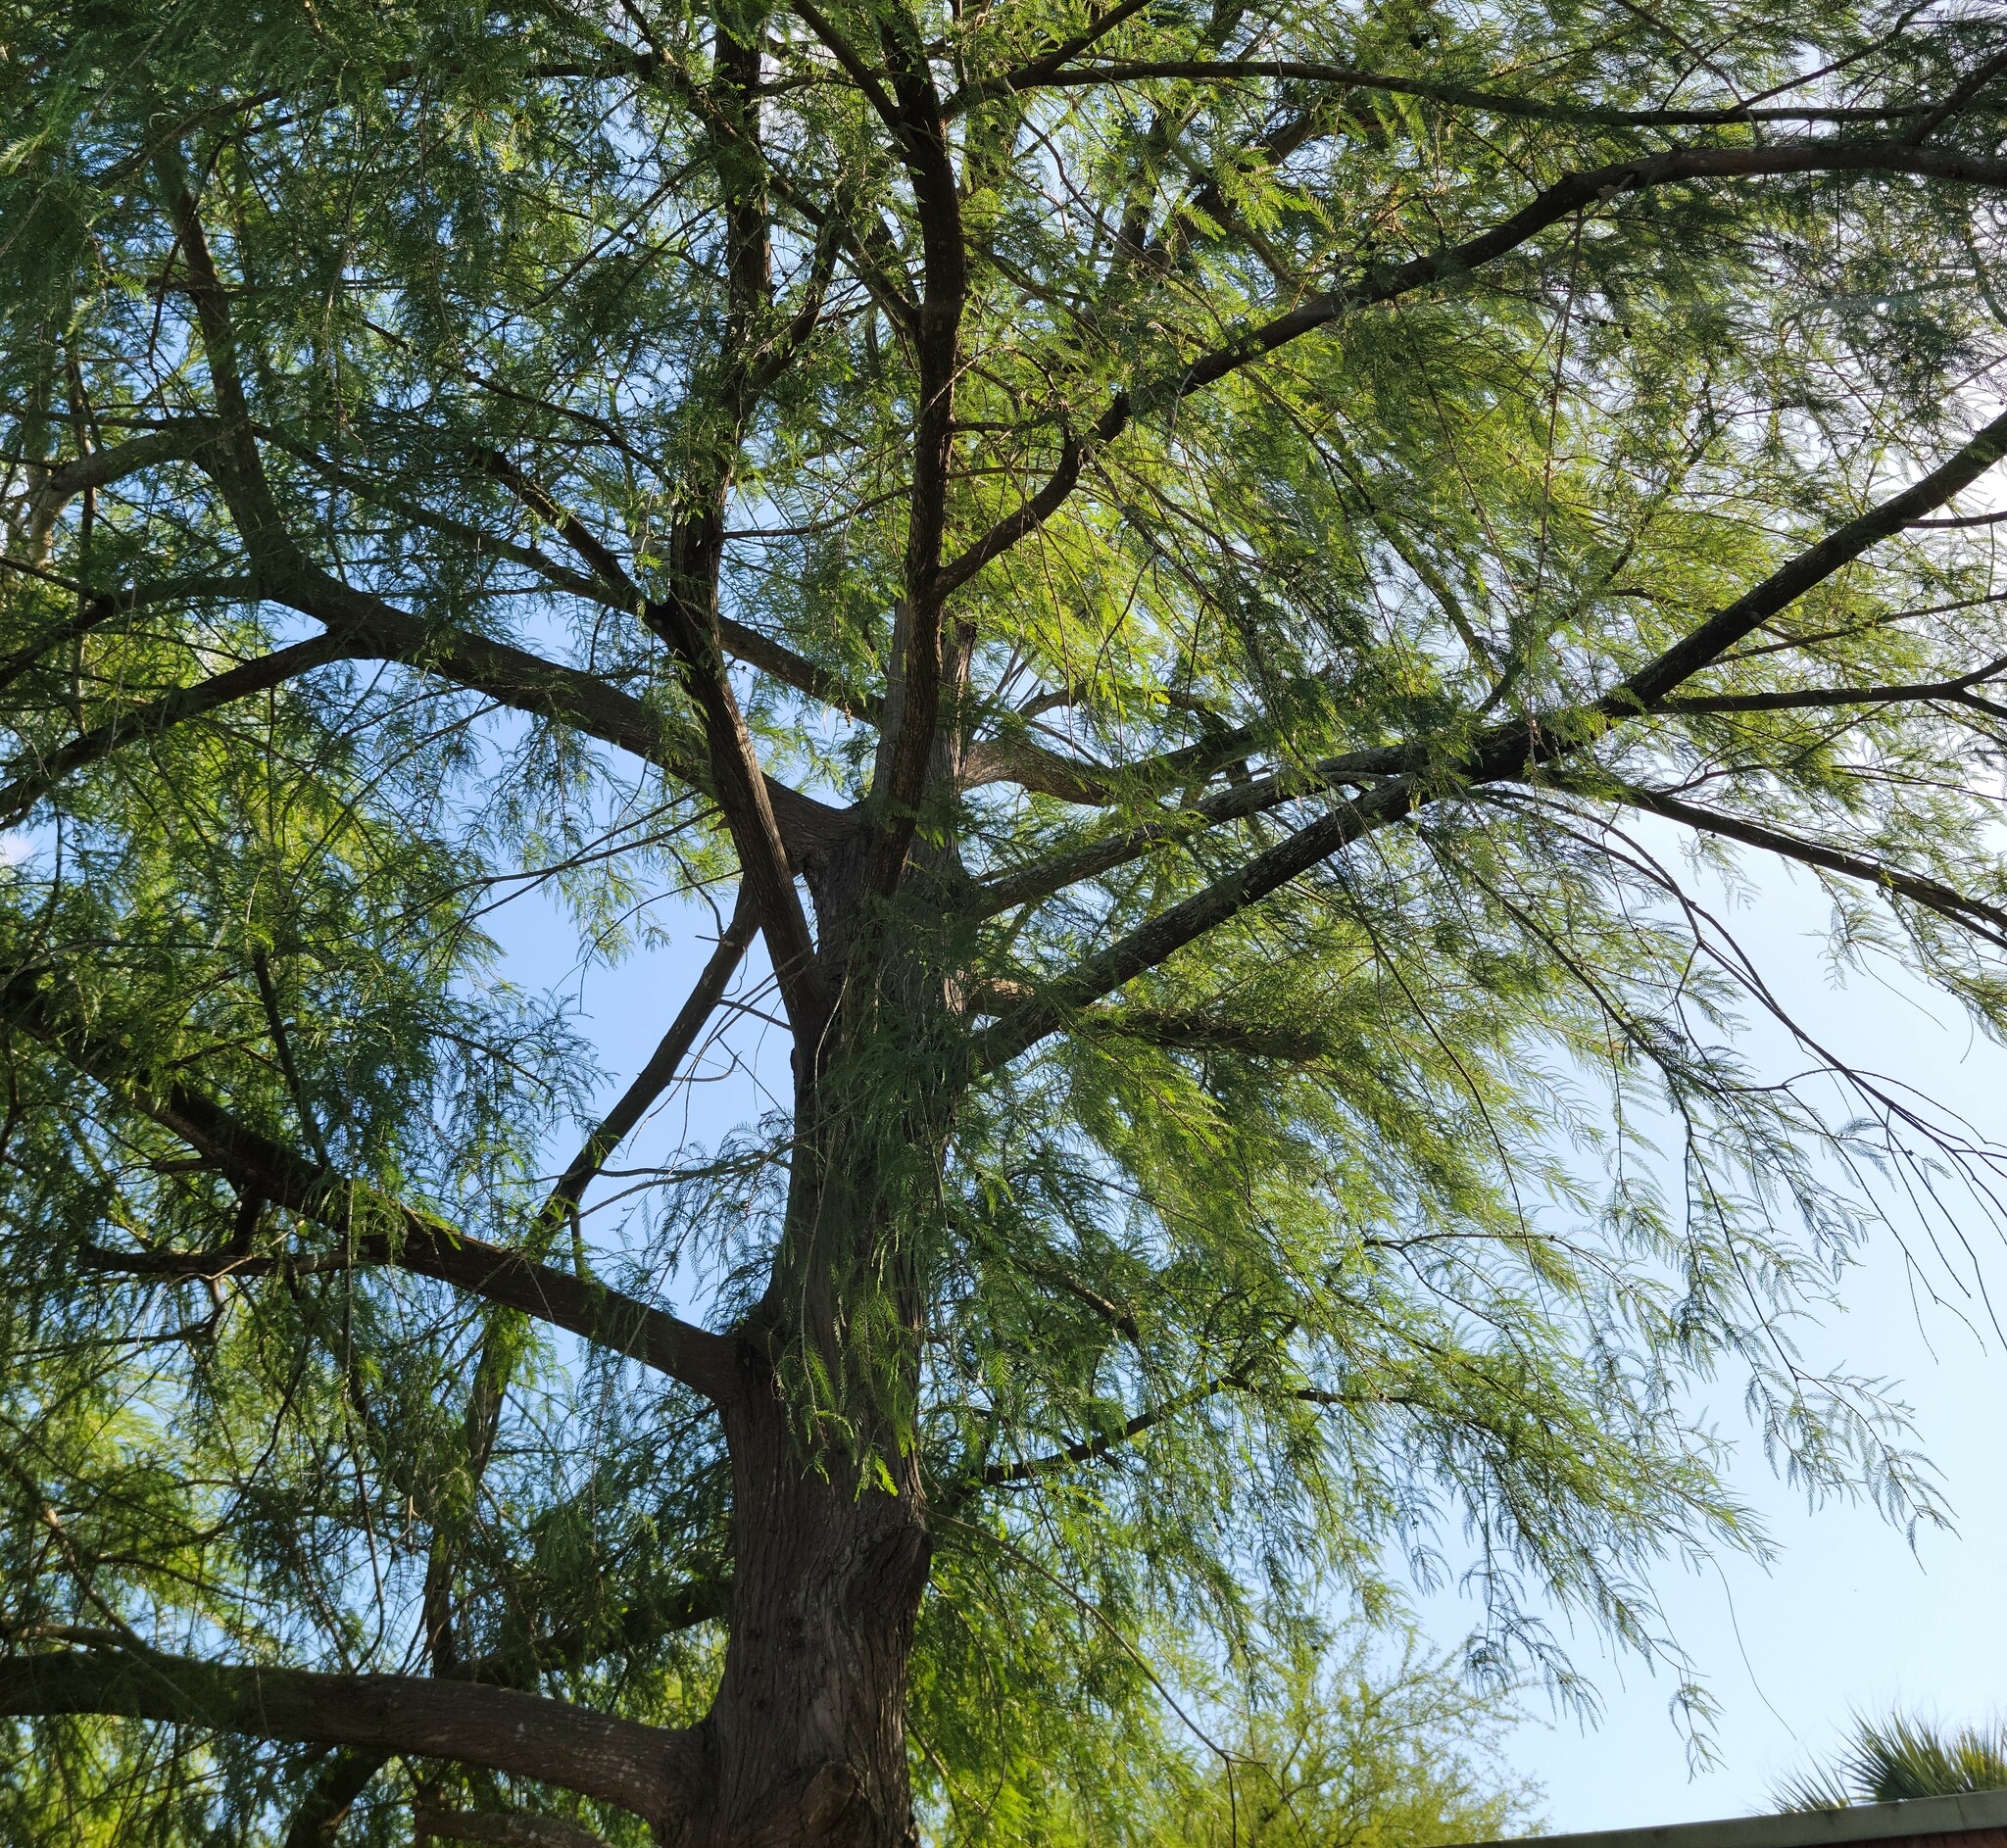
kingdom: Plantae
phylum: Tracheophyta
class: Pinopsida
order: Pinales
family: Cupressaceae
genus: Taxodium
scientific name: Taxodium mucronatum
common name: Montezume bald cypress
